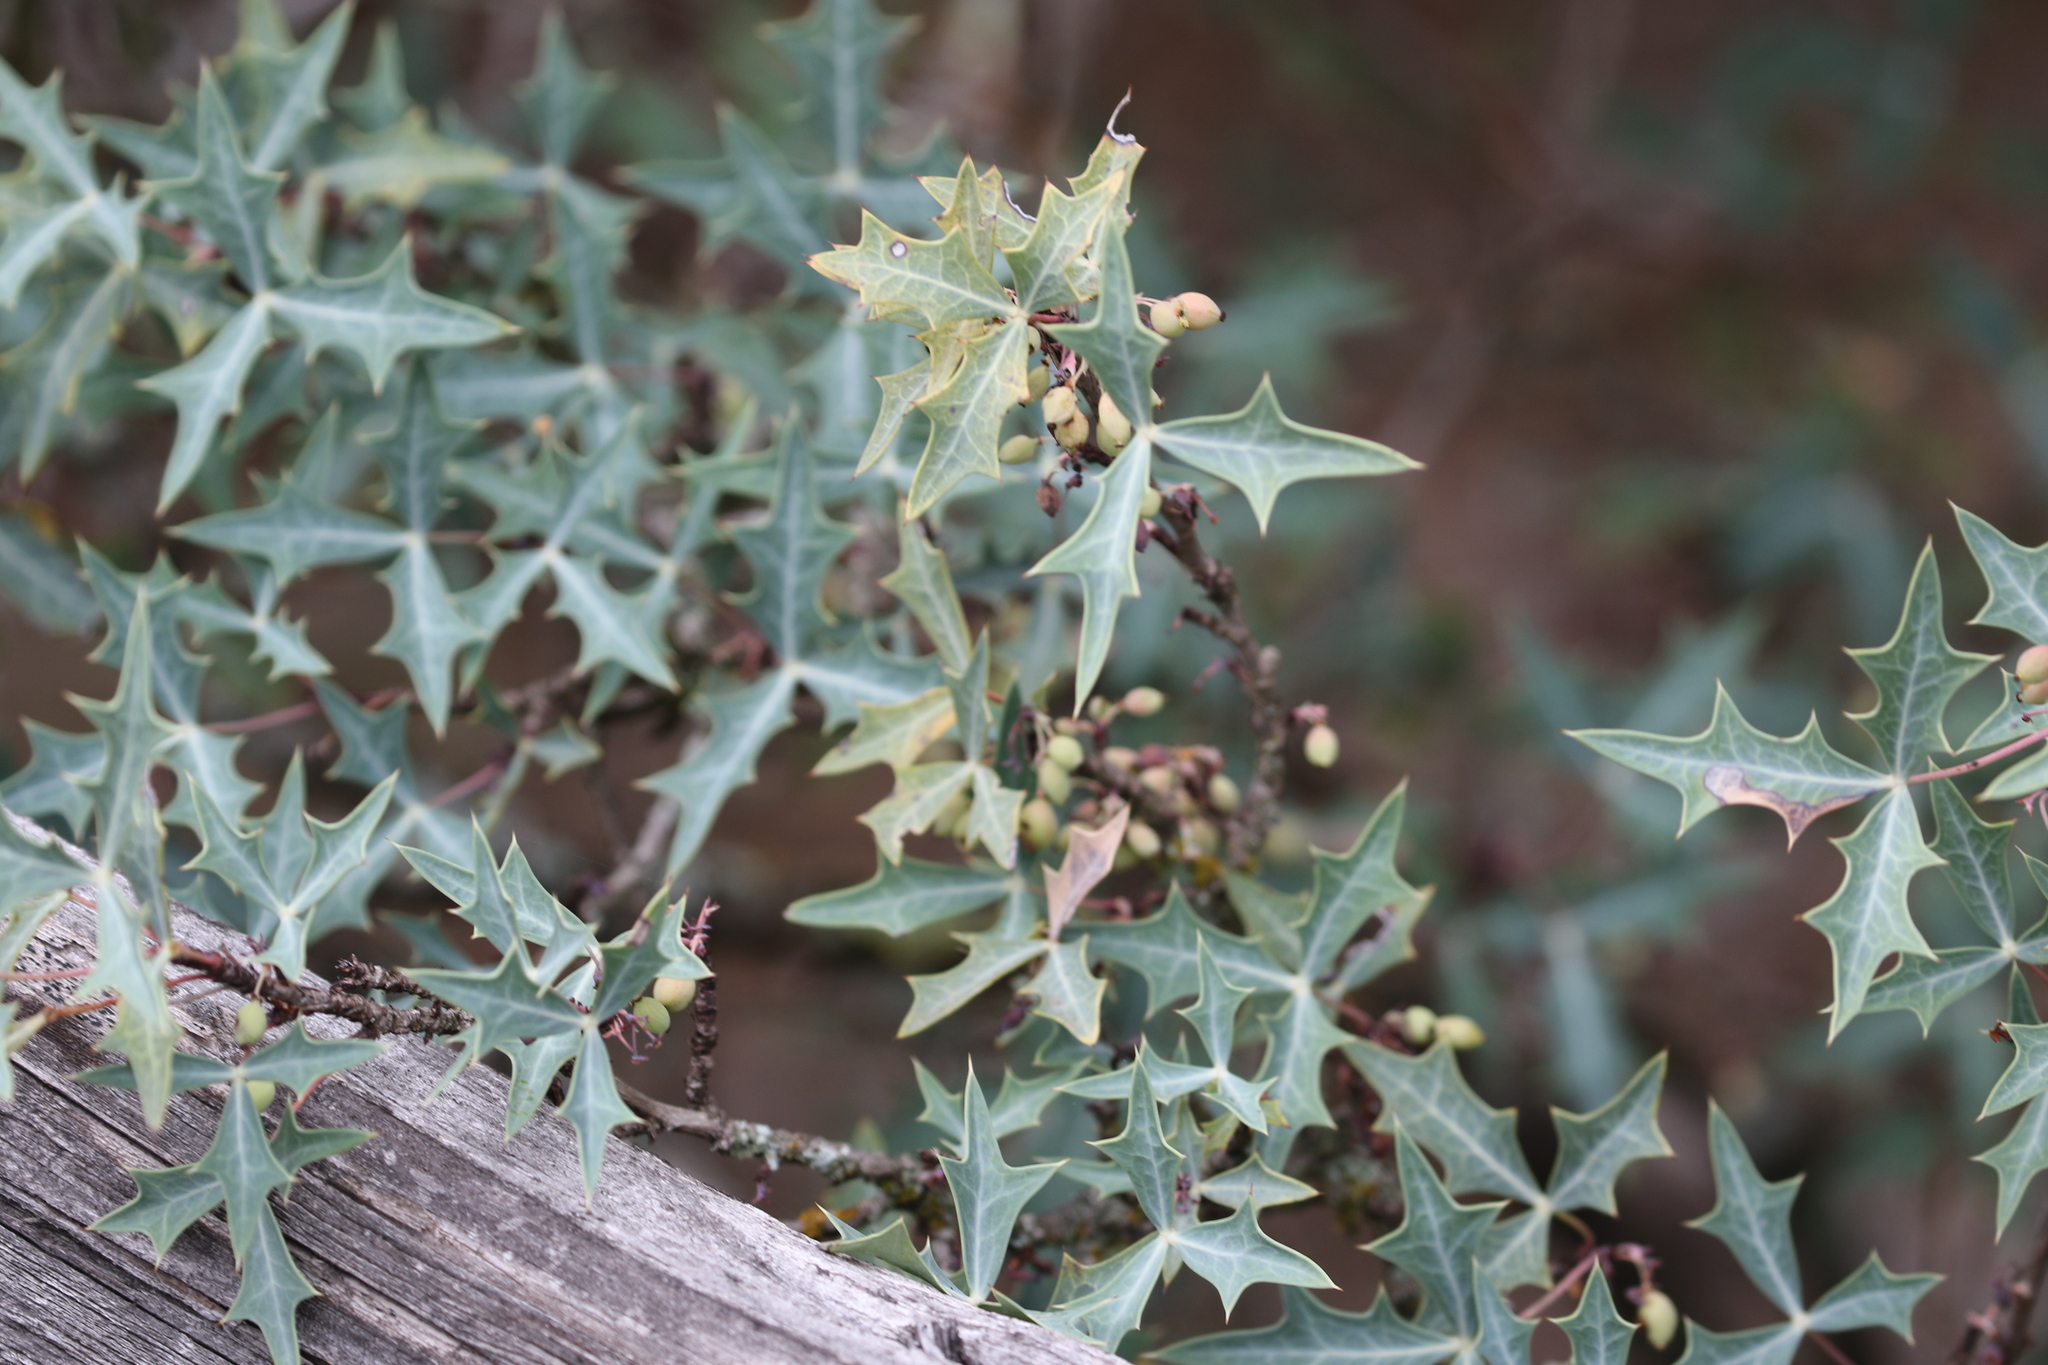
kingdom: Plantae
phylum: Tracheophyta
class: Magnoliopsida
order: Ranunculales
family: Berberidaceae
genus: Alloberberis
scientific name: Alloberberis trifoliolata
